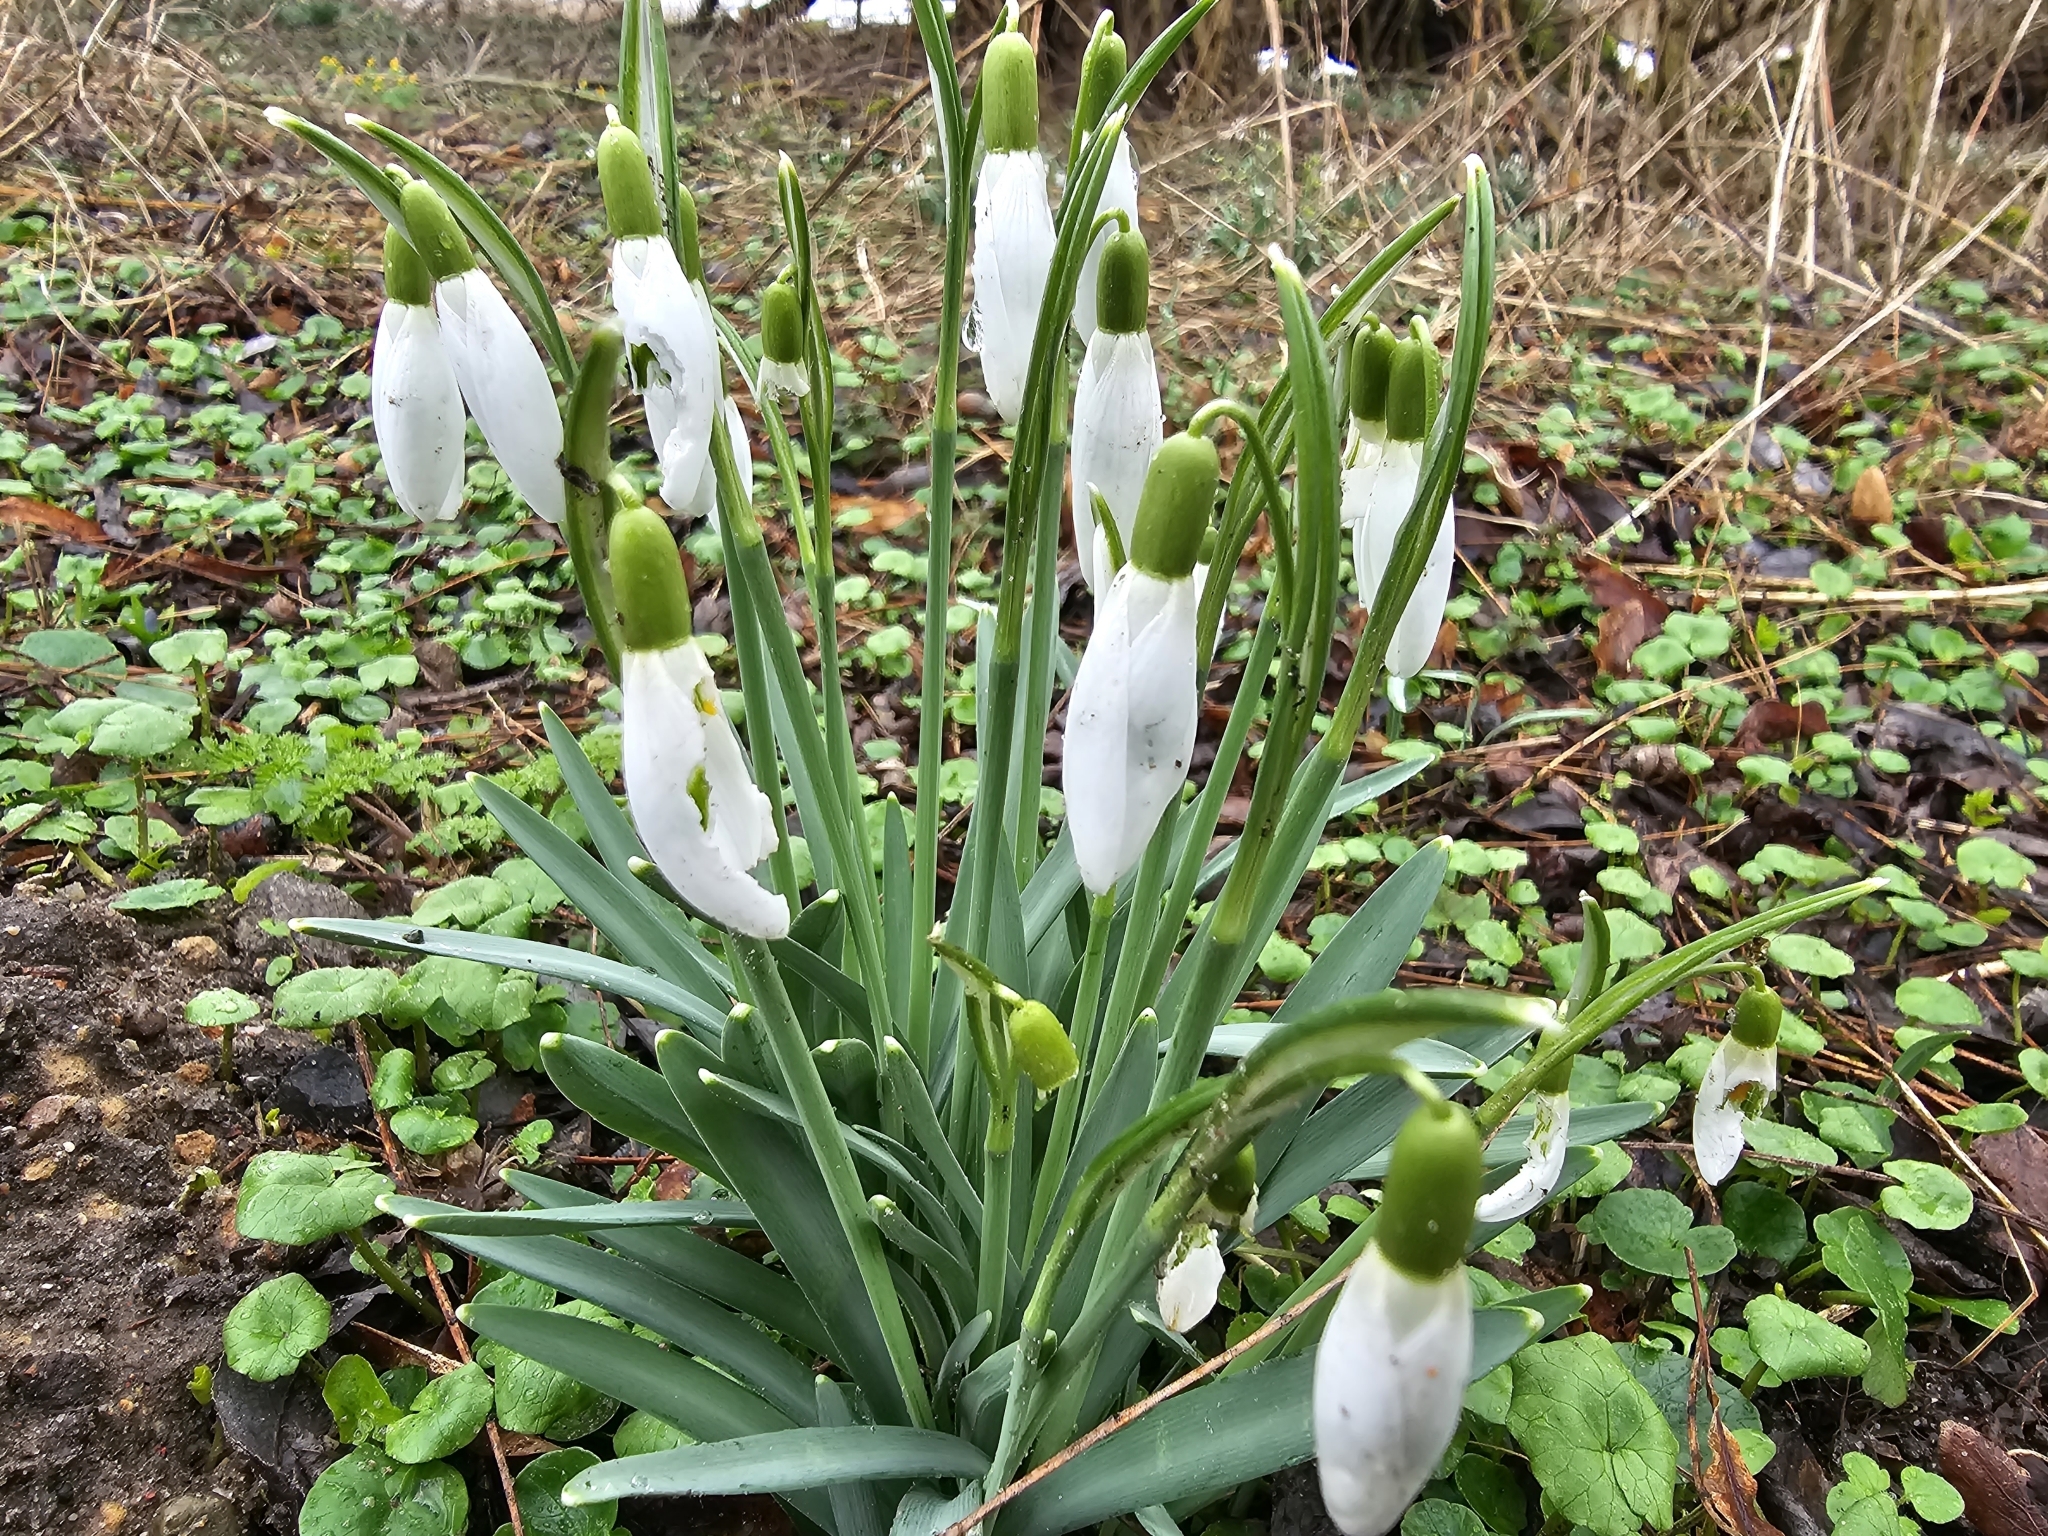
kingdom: Plantae
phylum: Tracheophyta
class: Liliopsida
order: Asparagales
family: Amaryllidaceae
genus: Galanthus
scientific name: Galanthus nivalis
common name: Snowdrop
